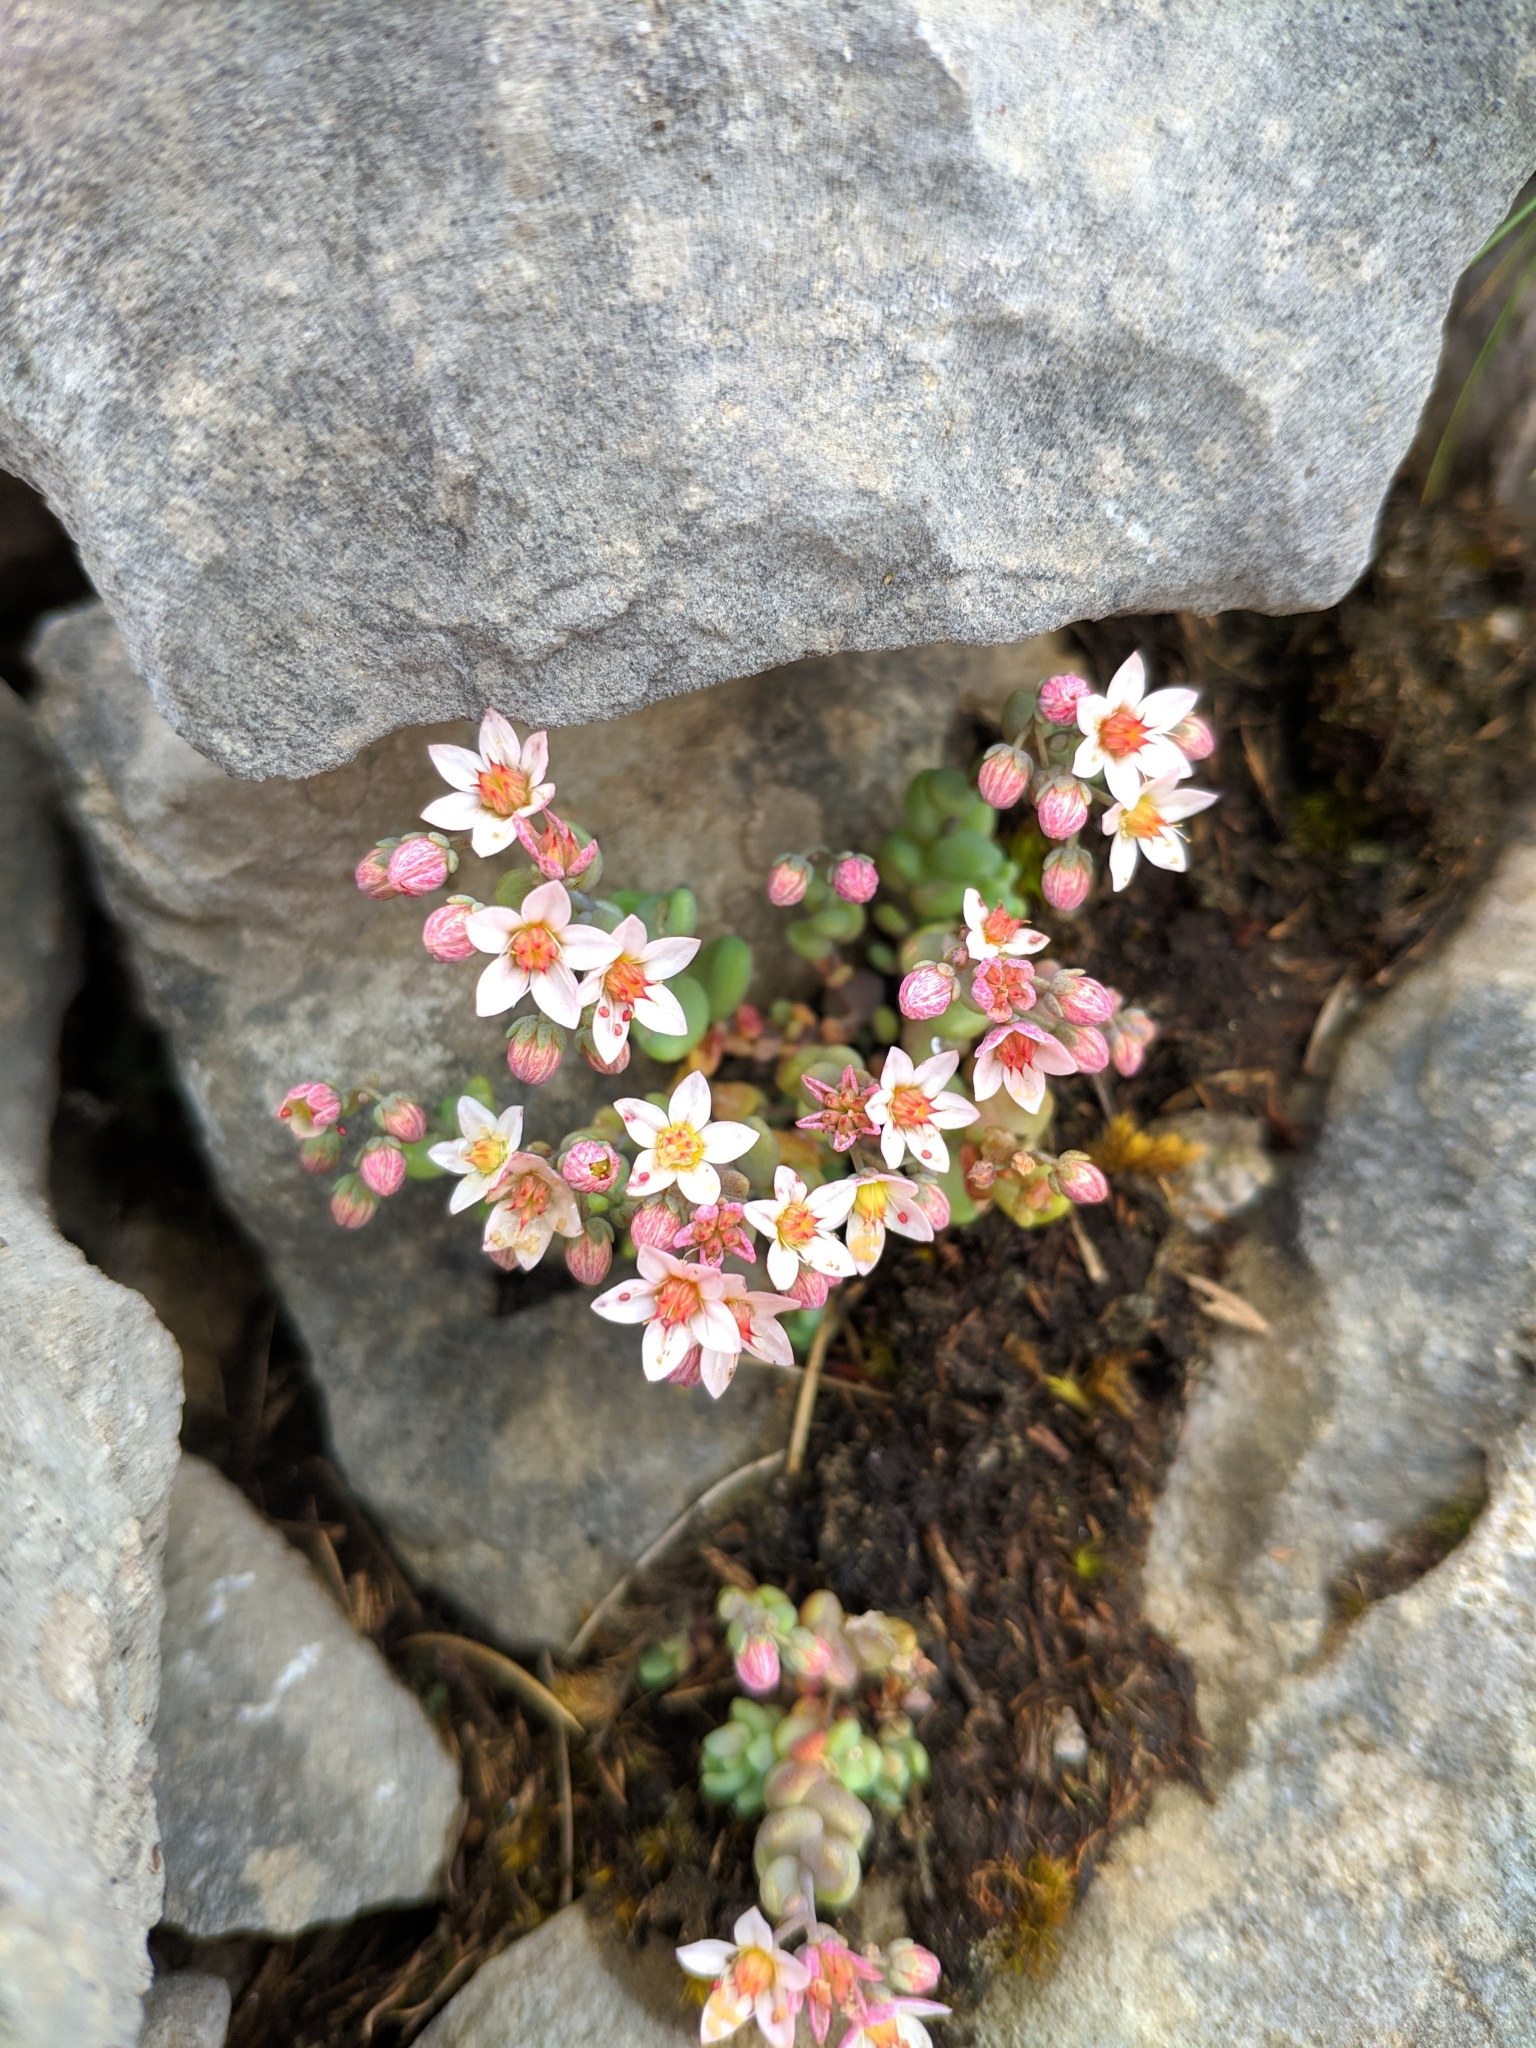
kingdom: Plantae
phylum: Tracheophyta
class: Magnoliopsida
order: Saxifragales
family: Crassulaceae
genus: Sedum
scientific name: Sedum dasyphyllum
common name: Thick-leaf stonecrop
